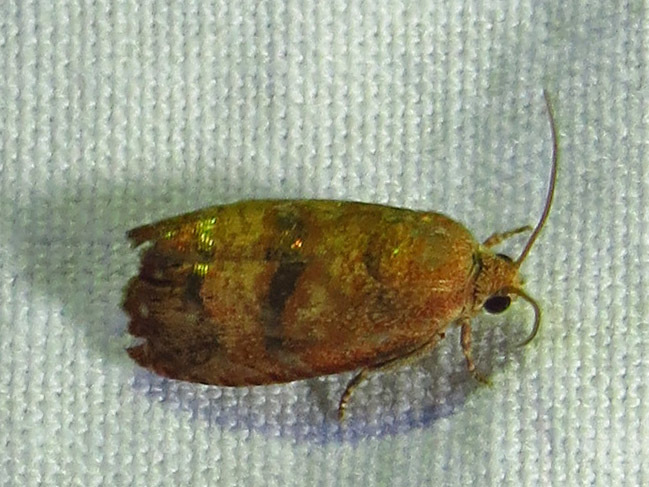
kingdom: Animalia
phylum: Arthropoda
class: Insecta
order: Lepidoptera
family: Tortricidae
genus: Cydia
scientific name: Cydia latiferreana
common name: Filbertworm moth
